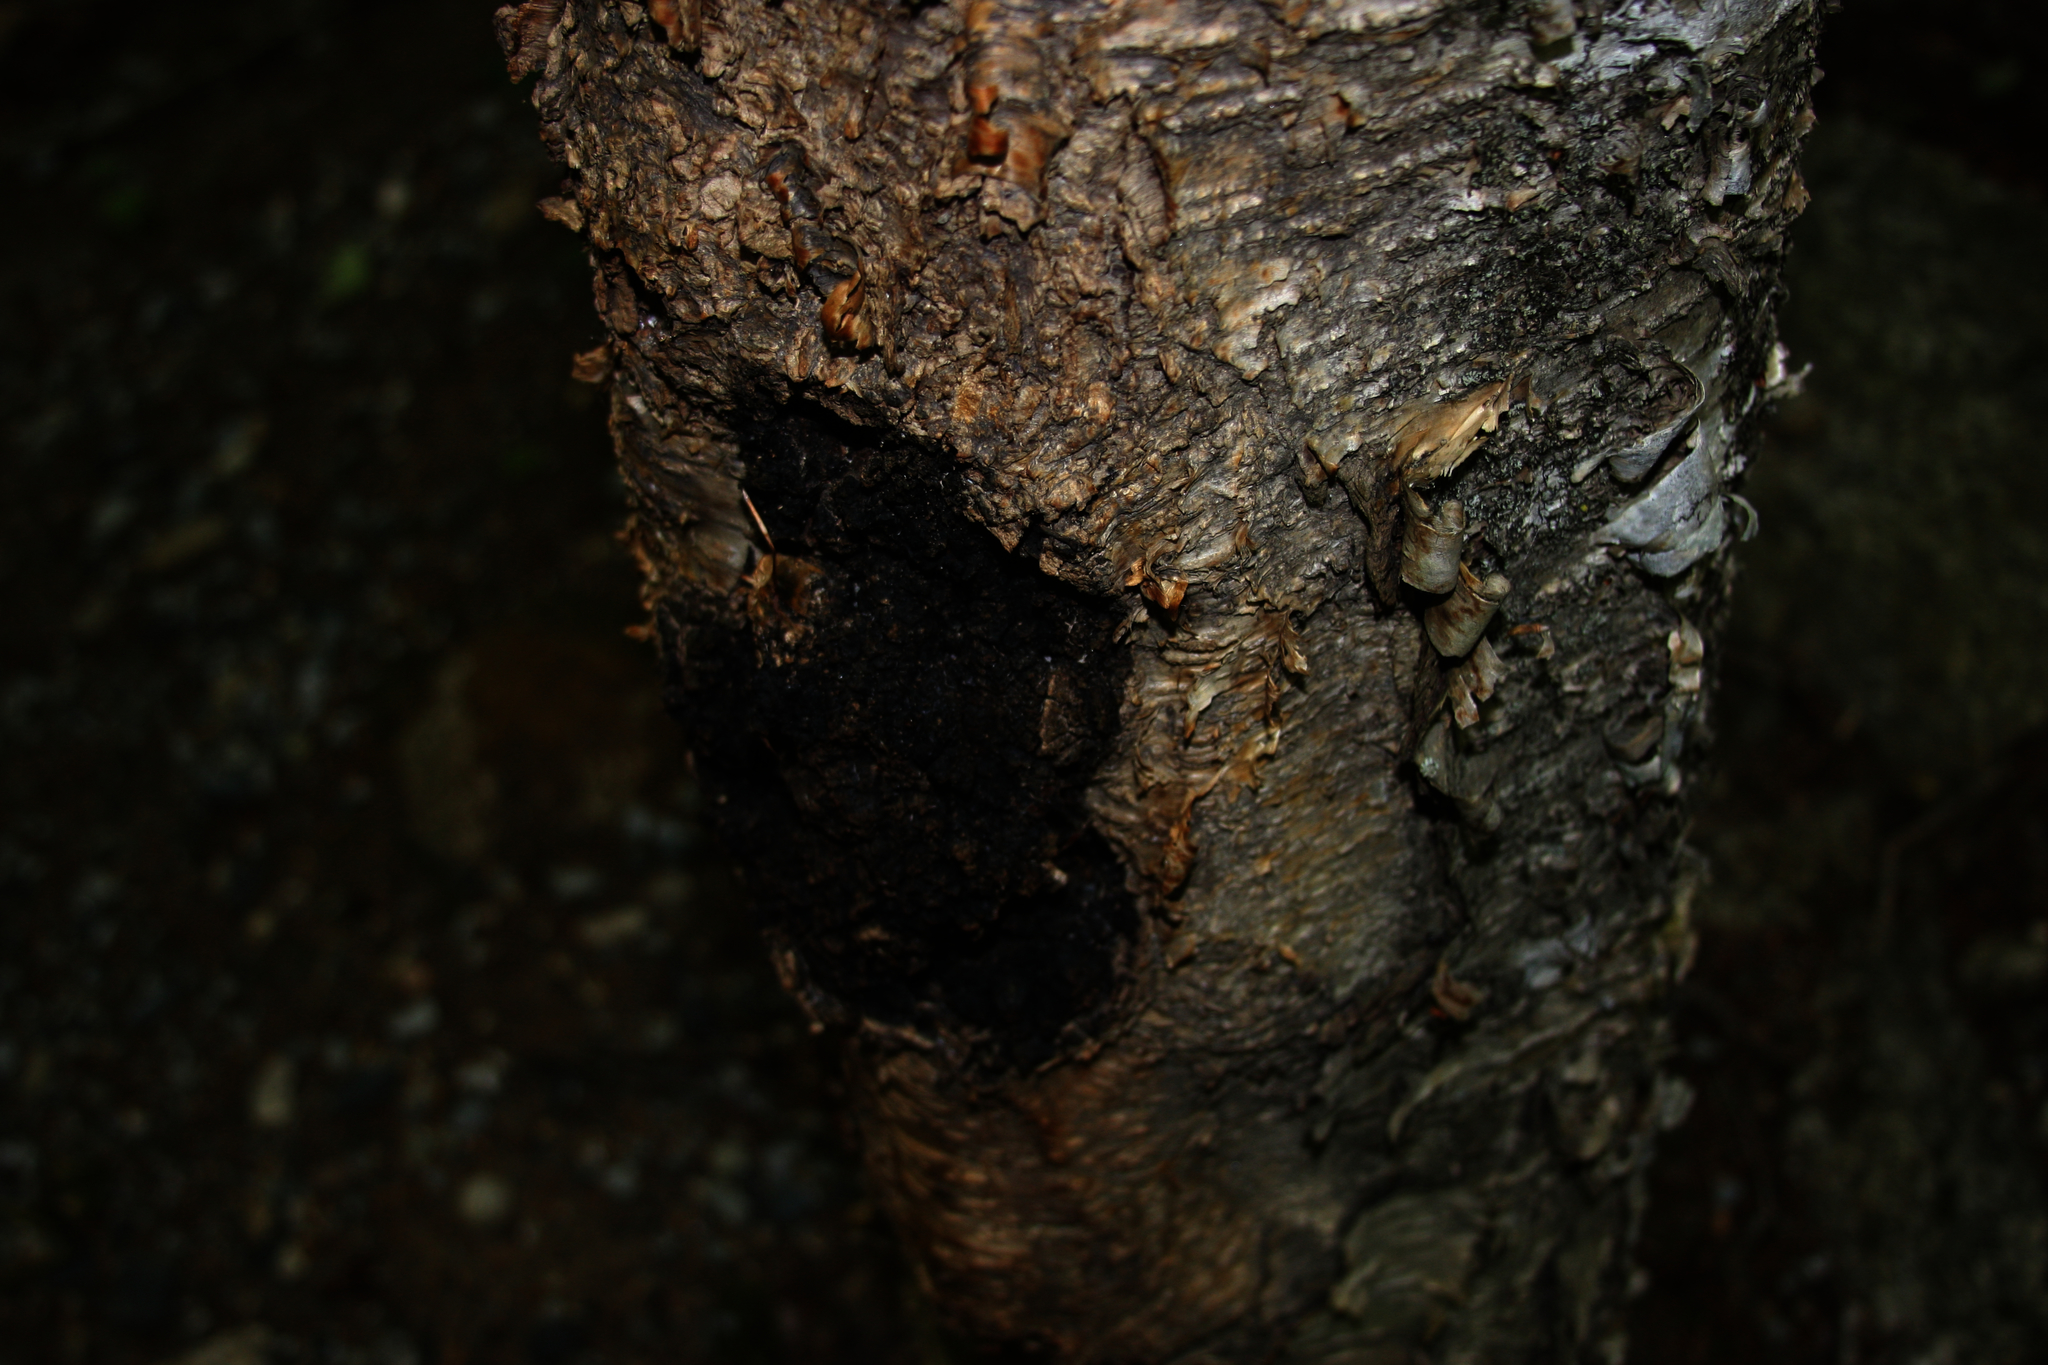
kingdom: Fungi
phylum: Basidiomycota
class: Agaricomycetes
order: Hymenochaetales
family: Hymenochaetaceae
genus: Inonotus
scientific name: Inonotus obliquus
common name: Chaga
